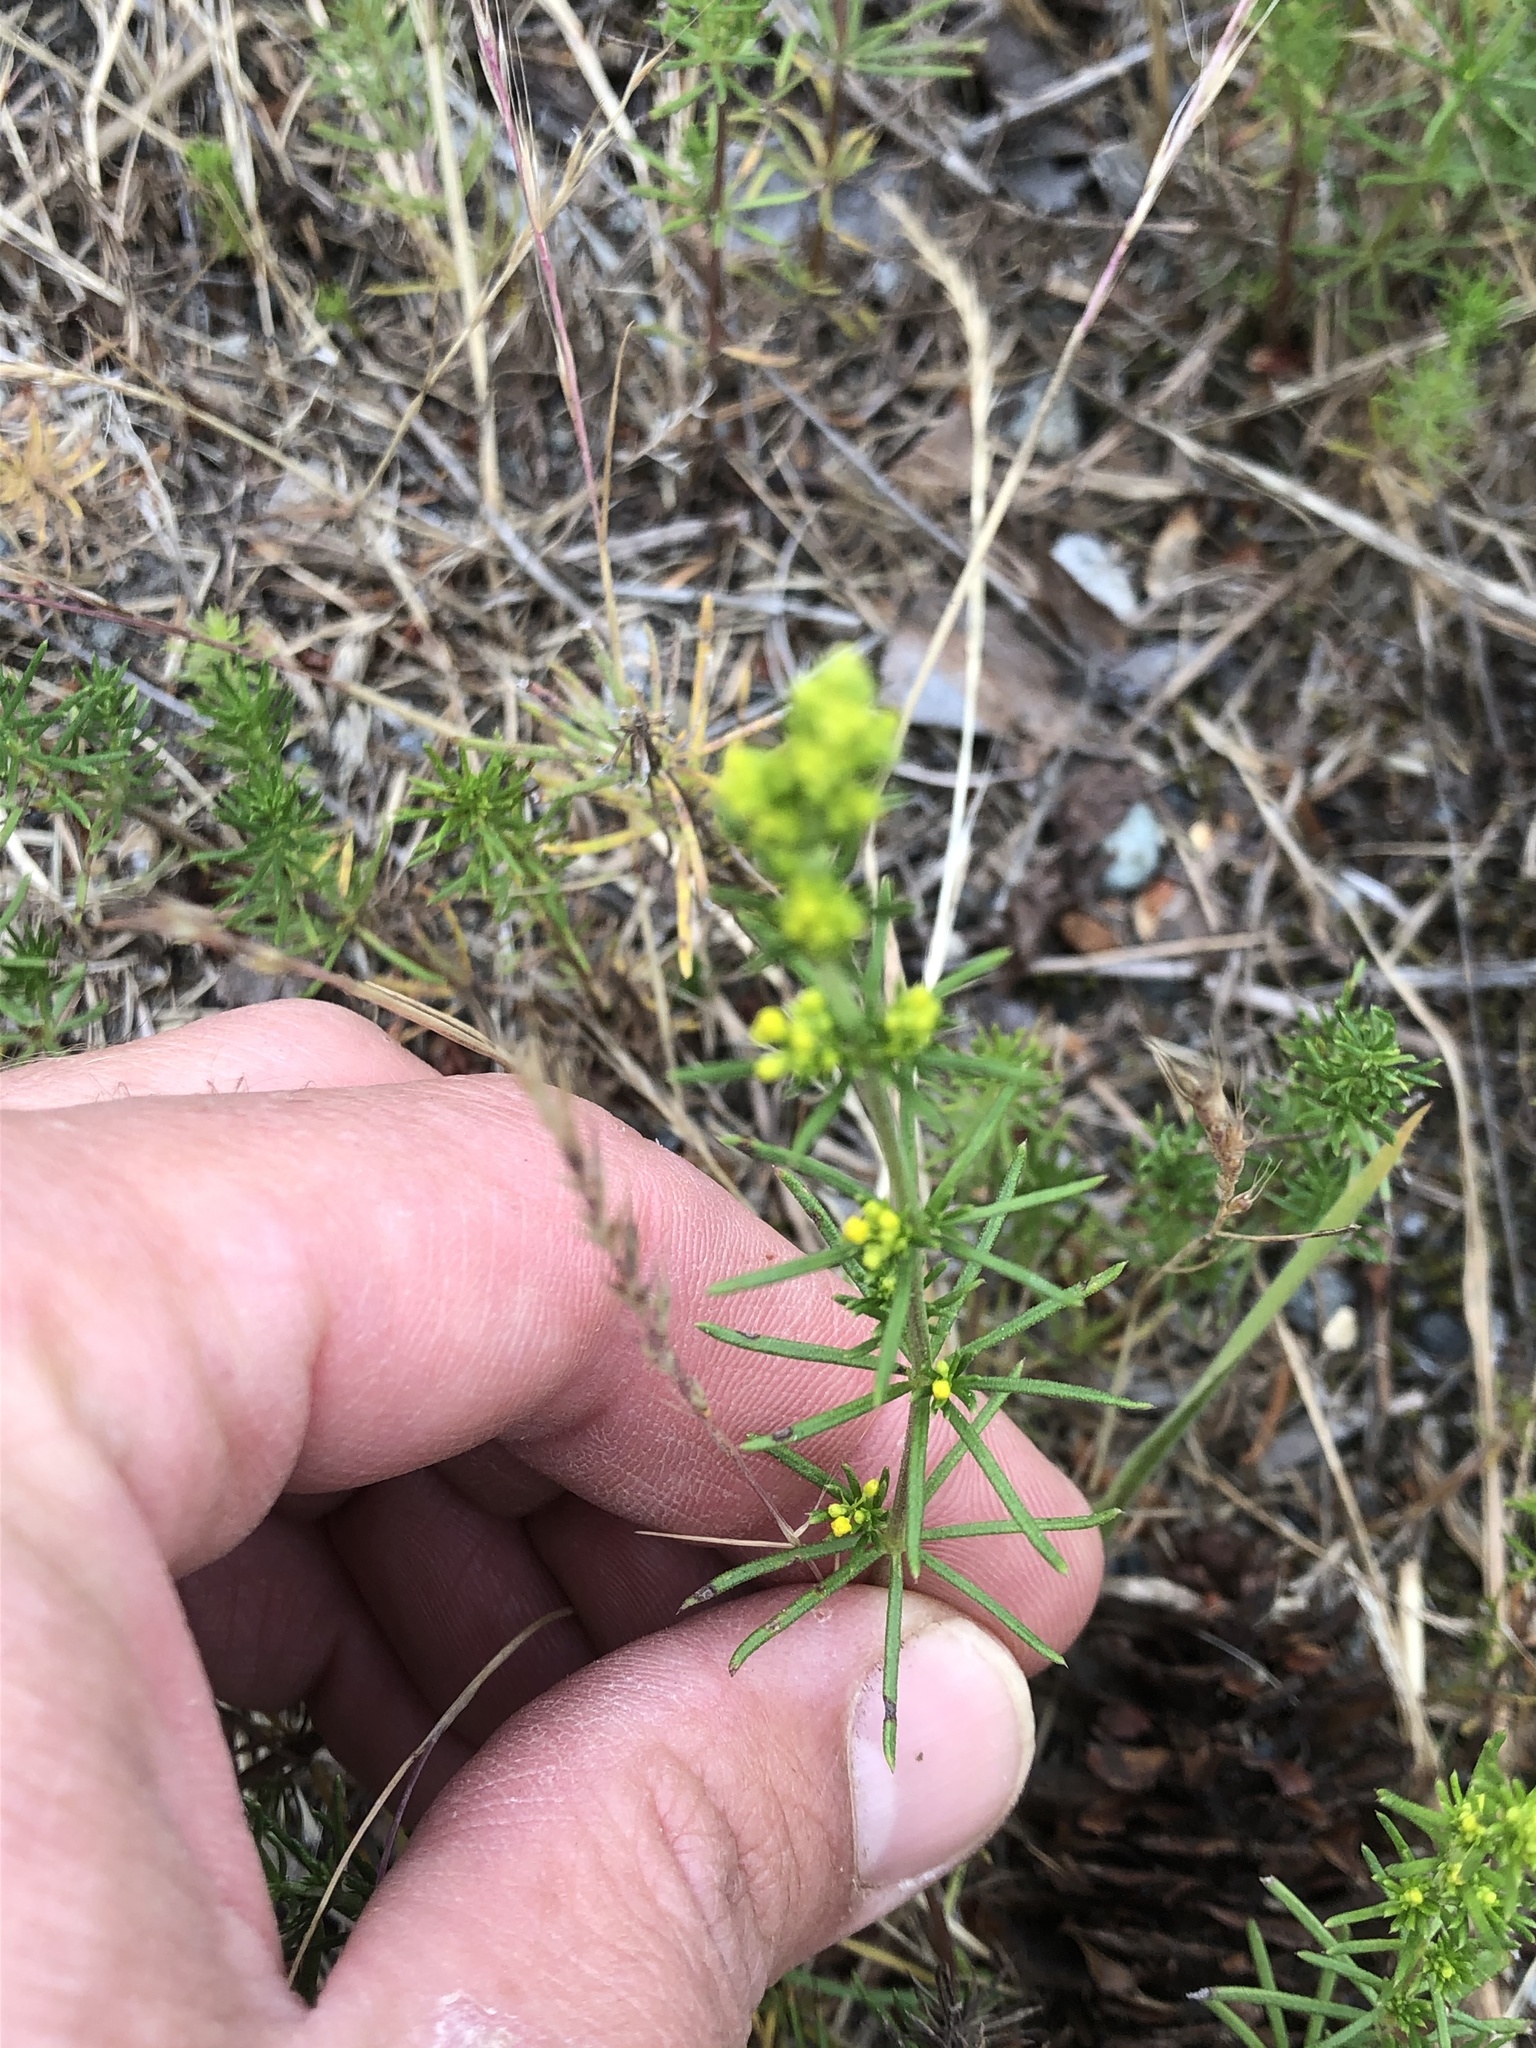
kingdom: Plantae
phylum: Tracheophyta
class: Magnoliopsida
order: Gentianales
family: Rubiaceae
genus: Galium
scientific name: Galium verum
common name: Lady's bedstraw
